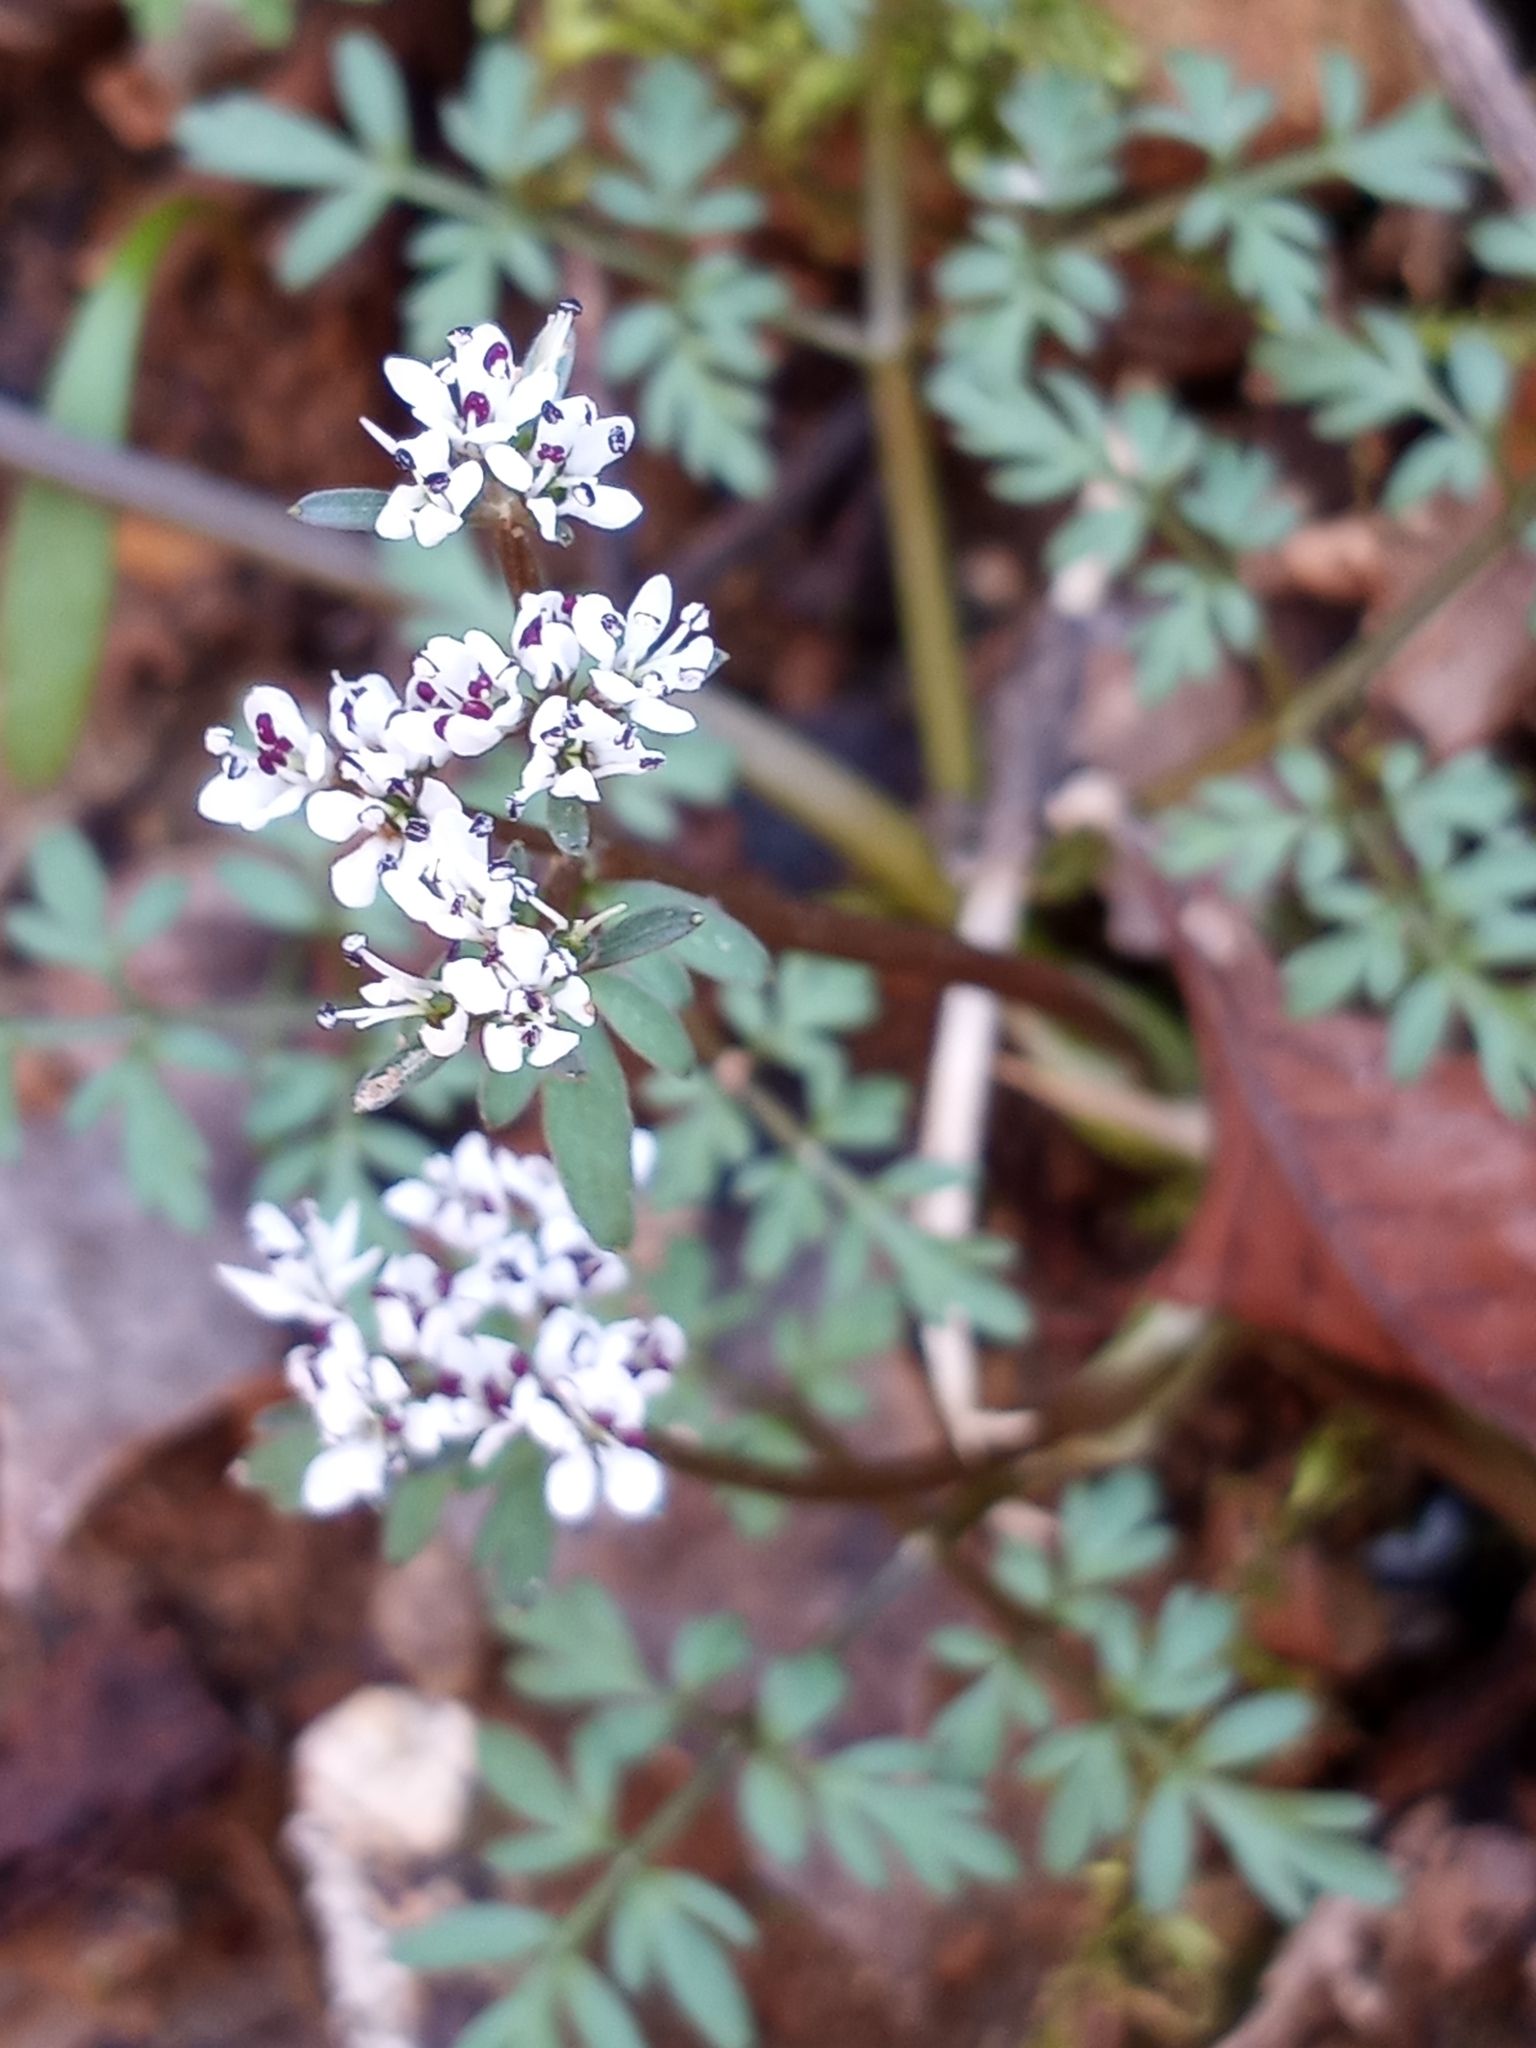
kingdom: Plantae
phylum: Tracheophyta
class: Magnoliopsida
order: Apiales
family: Apiaceae
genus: Erigenia
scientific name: Erigenia bulbosa
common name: Pepper-and-salt
